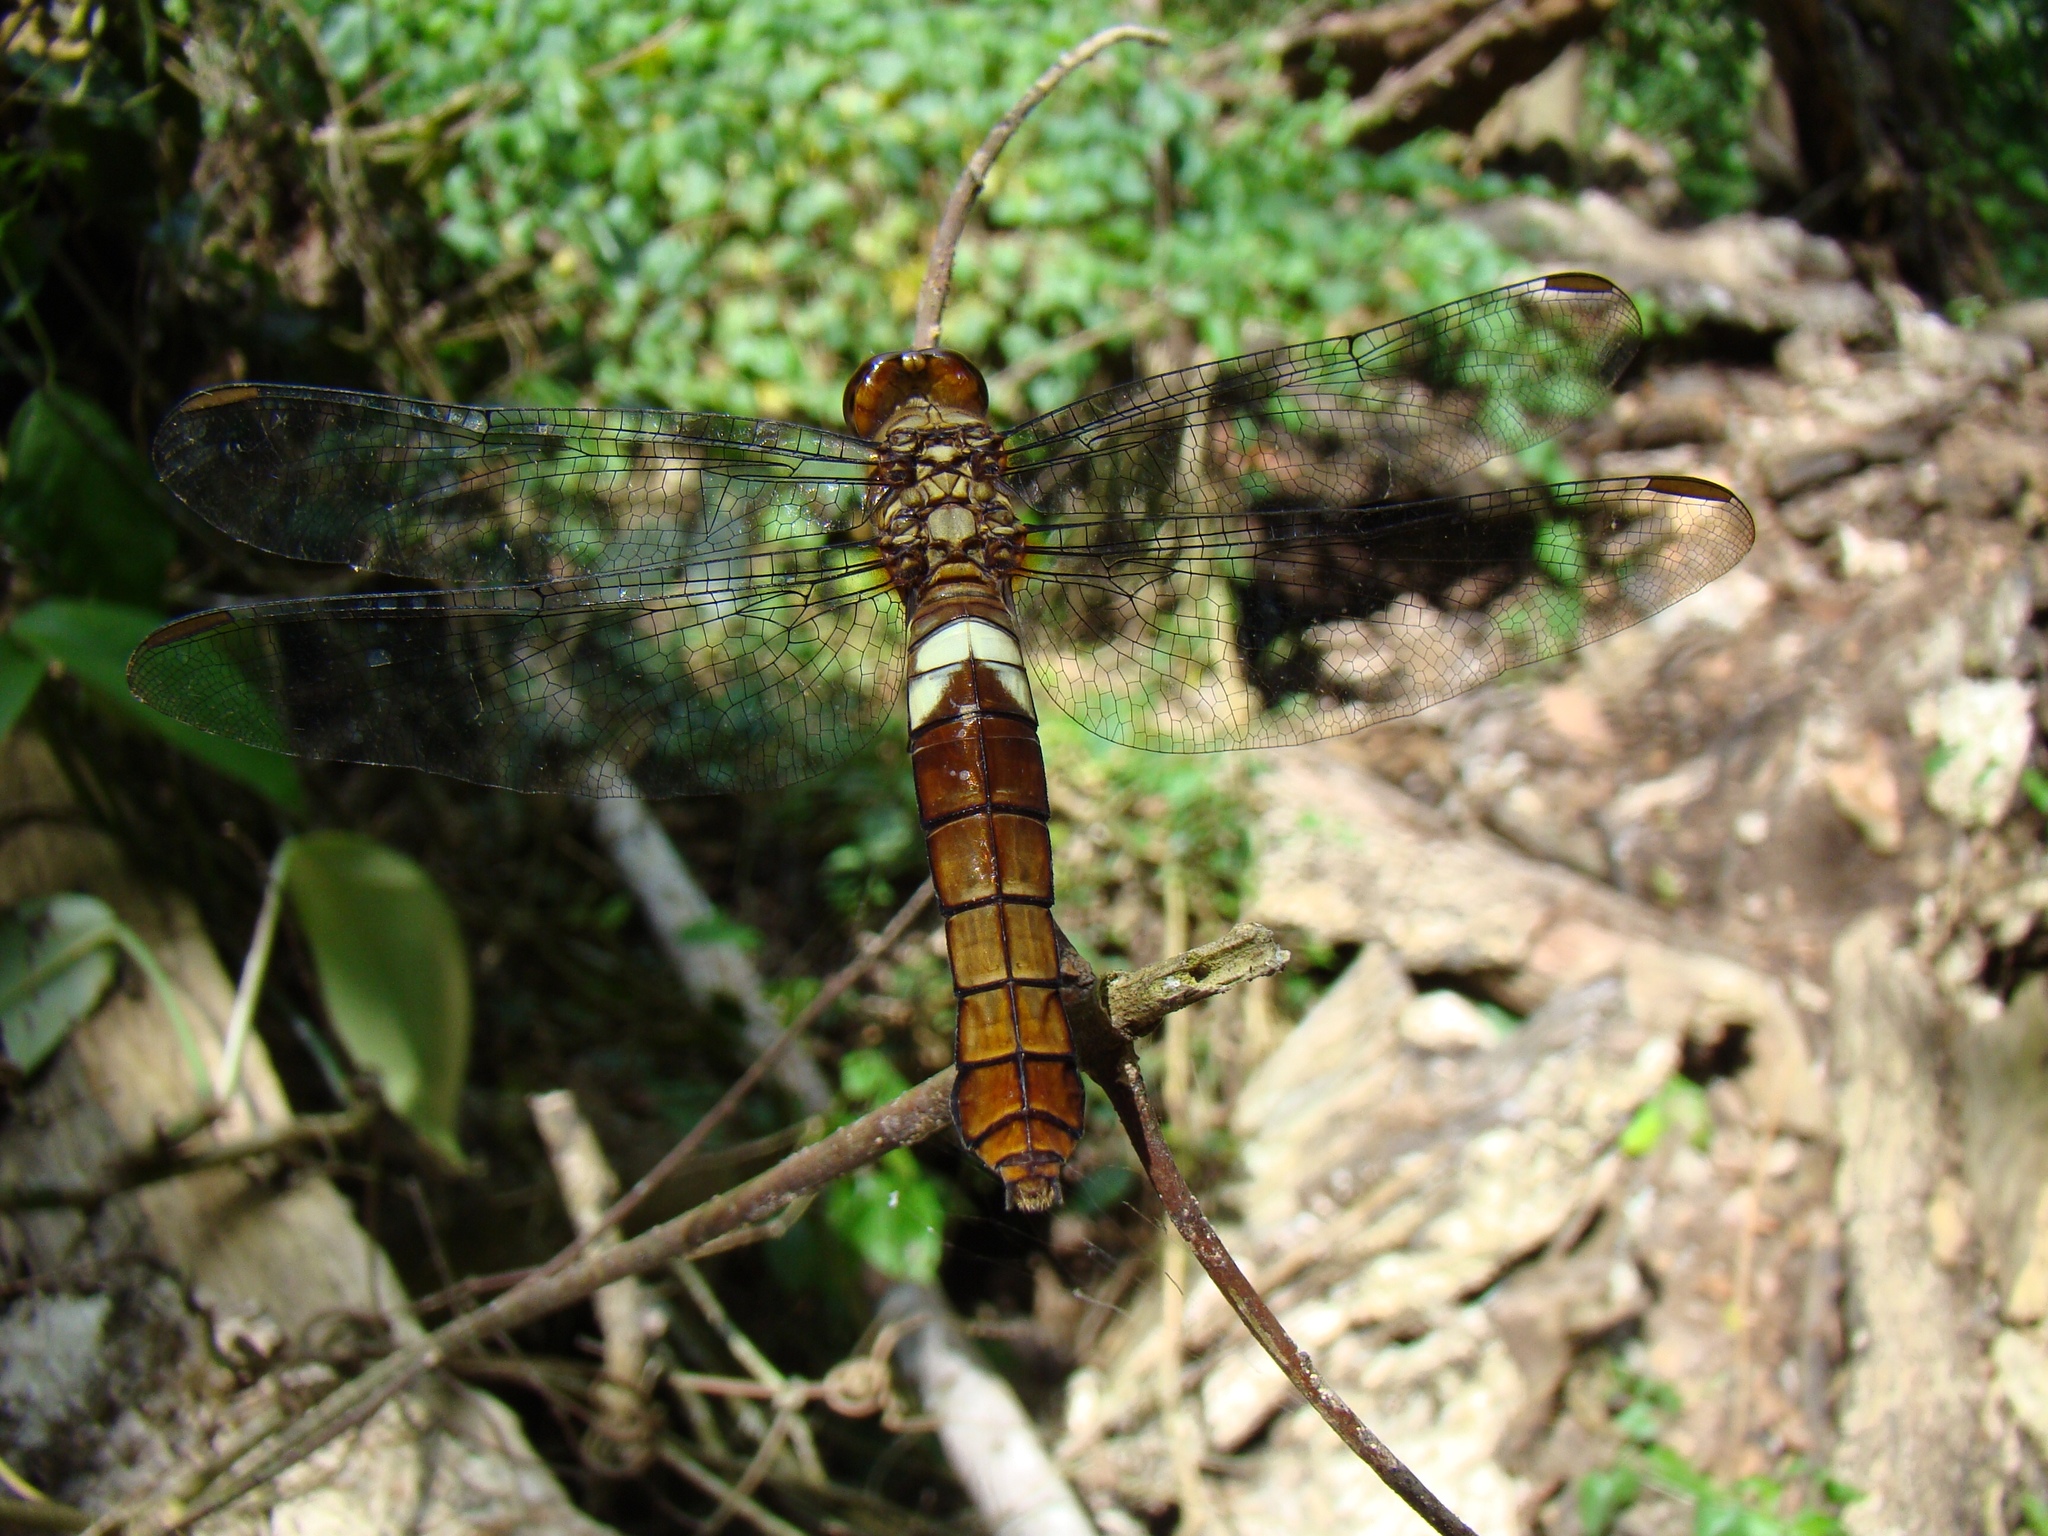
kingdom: Animalia
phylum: Arthropoda
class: Insecta
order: Odonata
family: Libellulidae
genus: Hadrothemis
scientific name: Hadrothemis coacta
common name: Robust jungleskimmer
